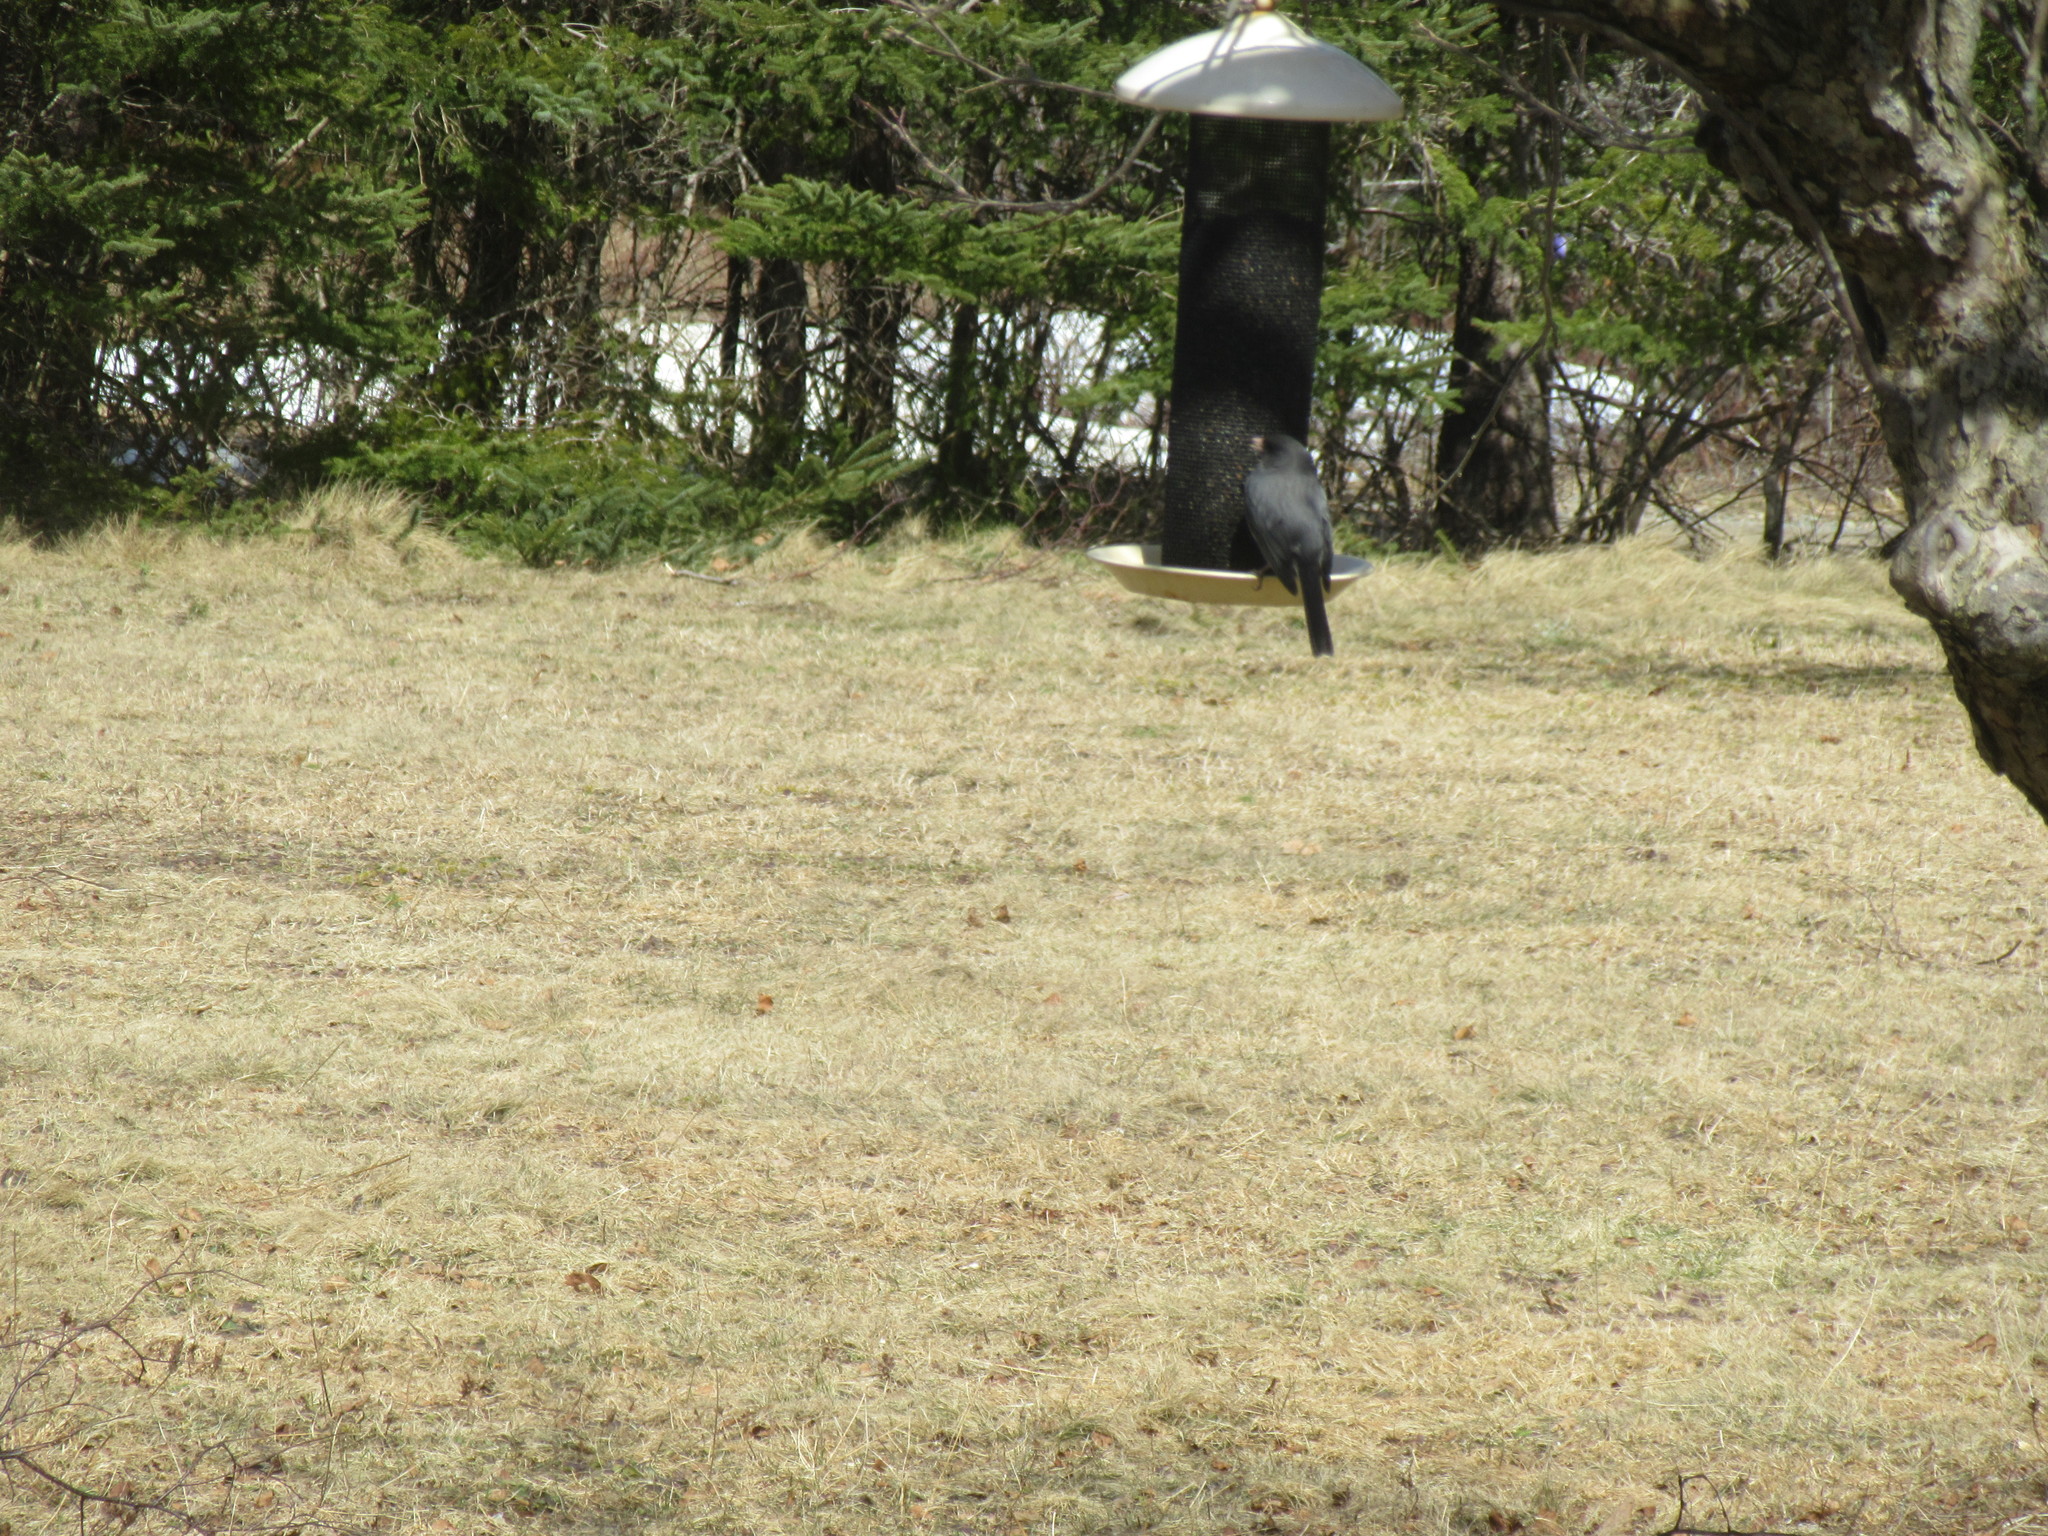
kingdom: Animalia
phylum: Chordata
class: Aves
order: Passeriformes
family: Passerellidae
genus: Junco
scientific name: Junco hyemalis
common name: Dark-eyed junco
